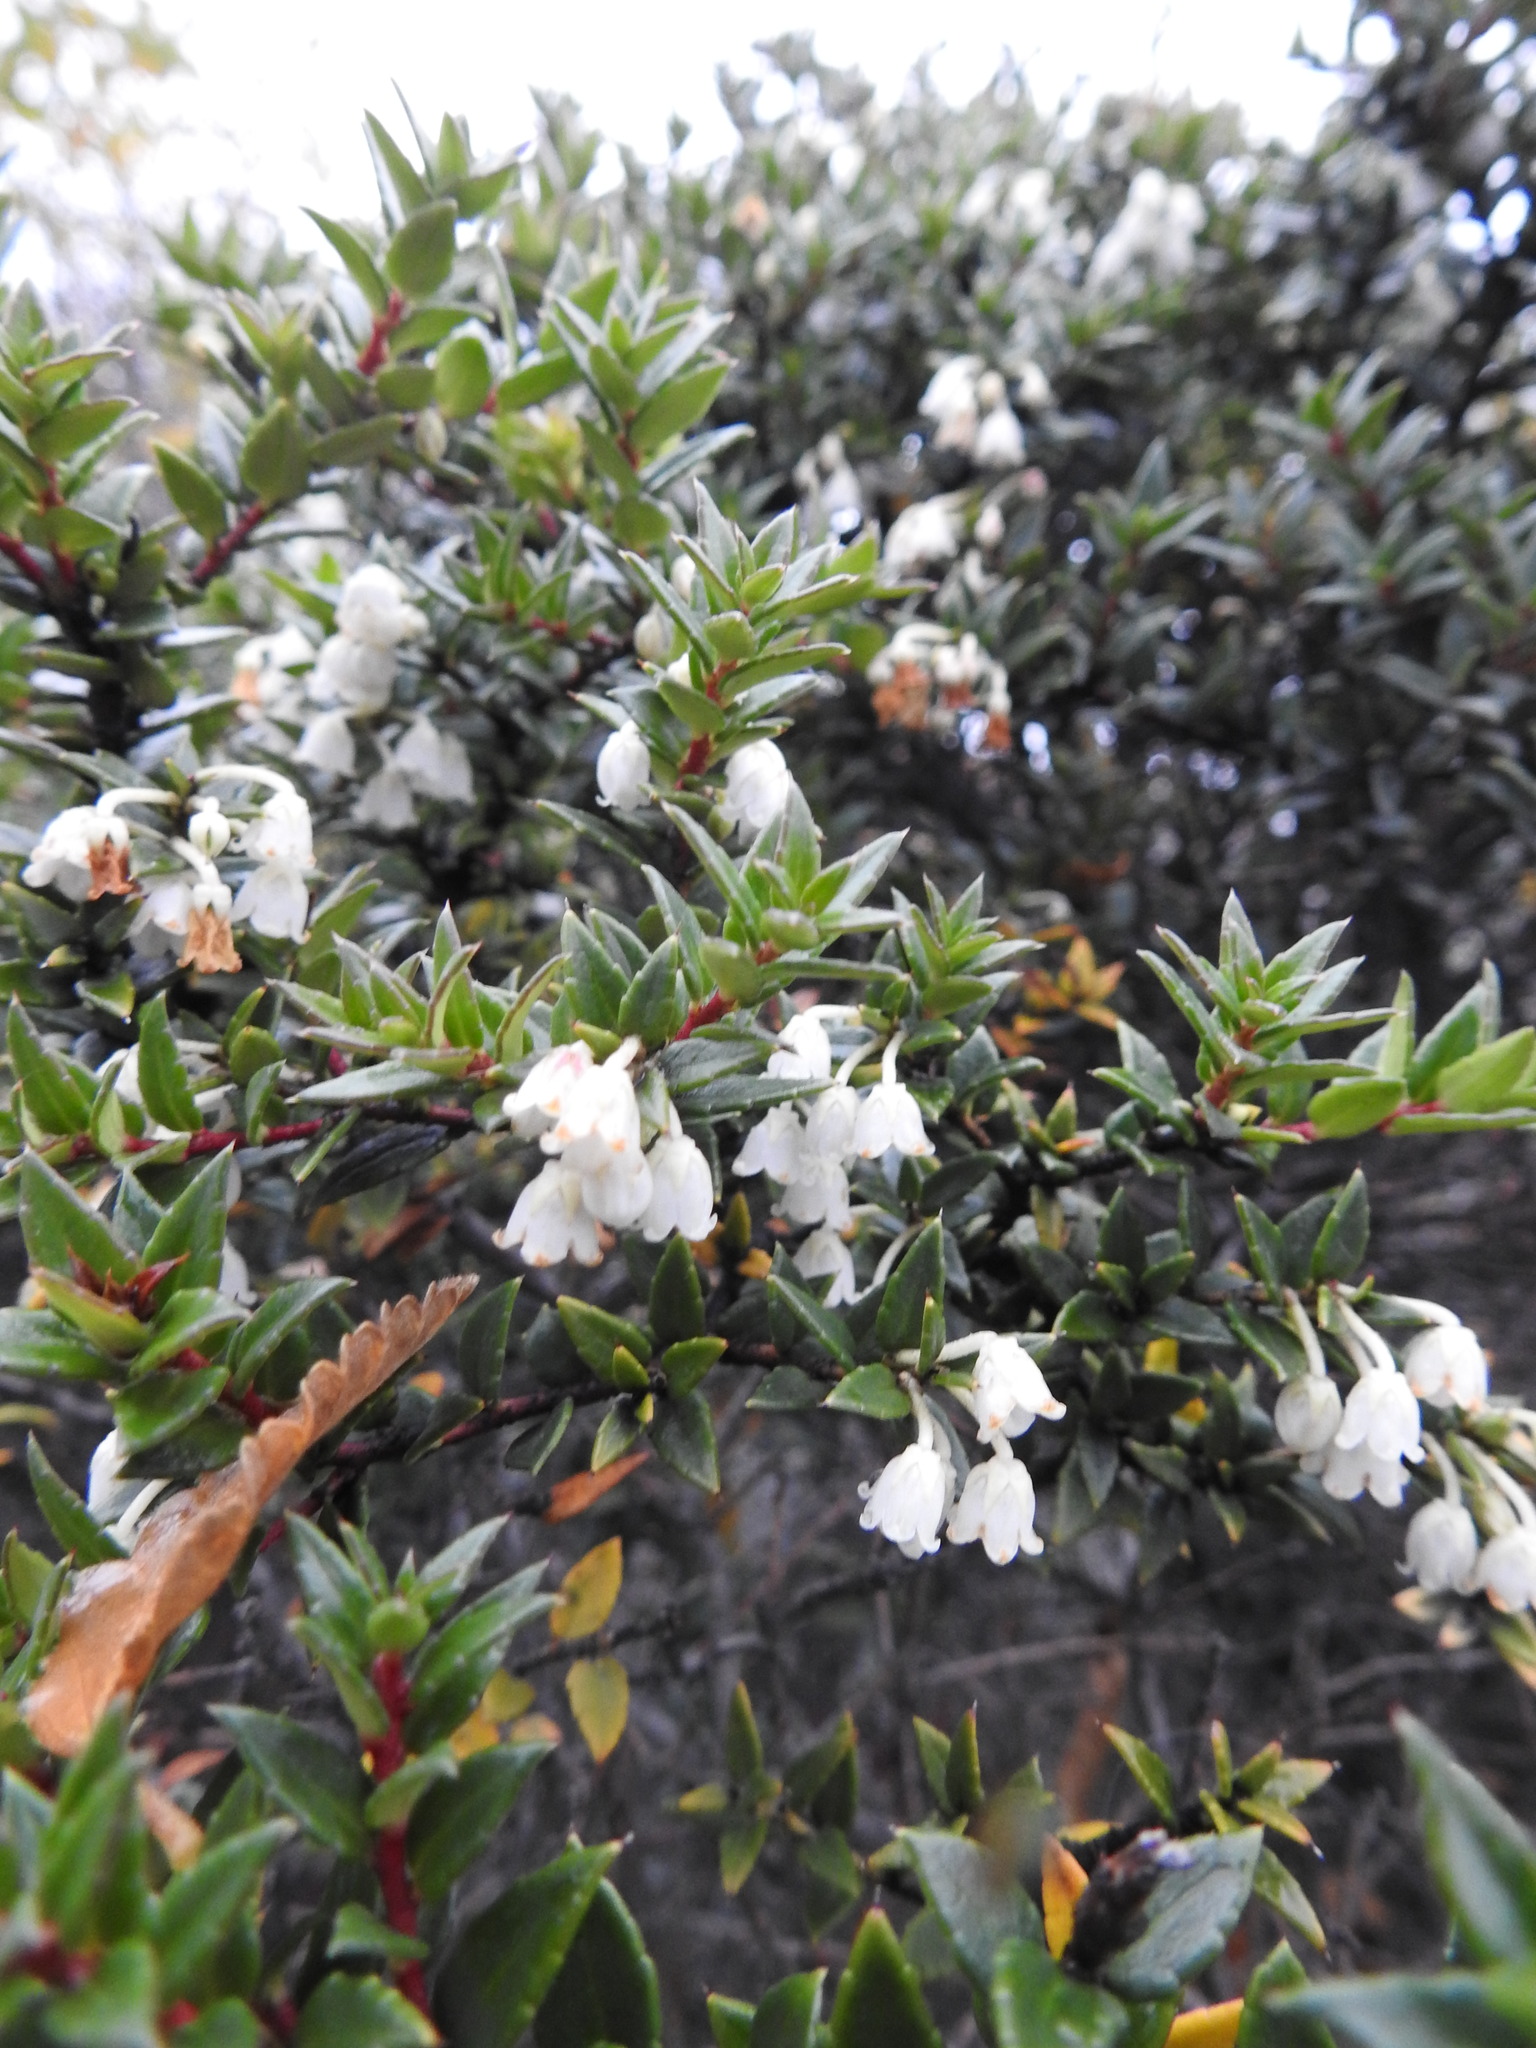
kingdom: Plantae
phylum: Tracheophyta
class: Magnoliopsida
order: Ericales
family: Ericaceae
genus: Gaultheria
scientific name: Gaultheria mucronata
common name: Prickly heath
